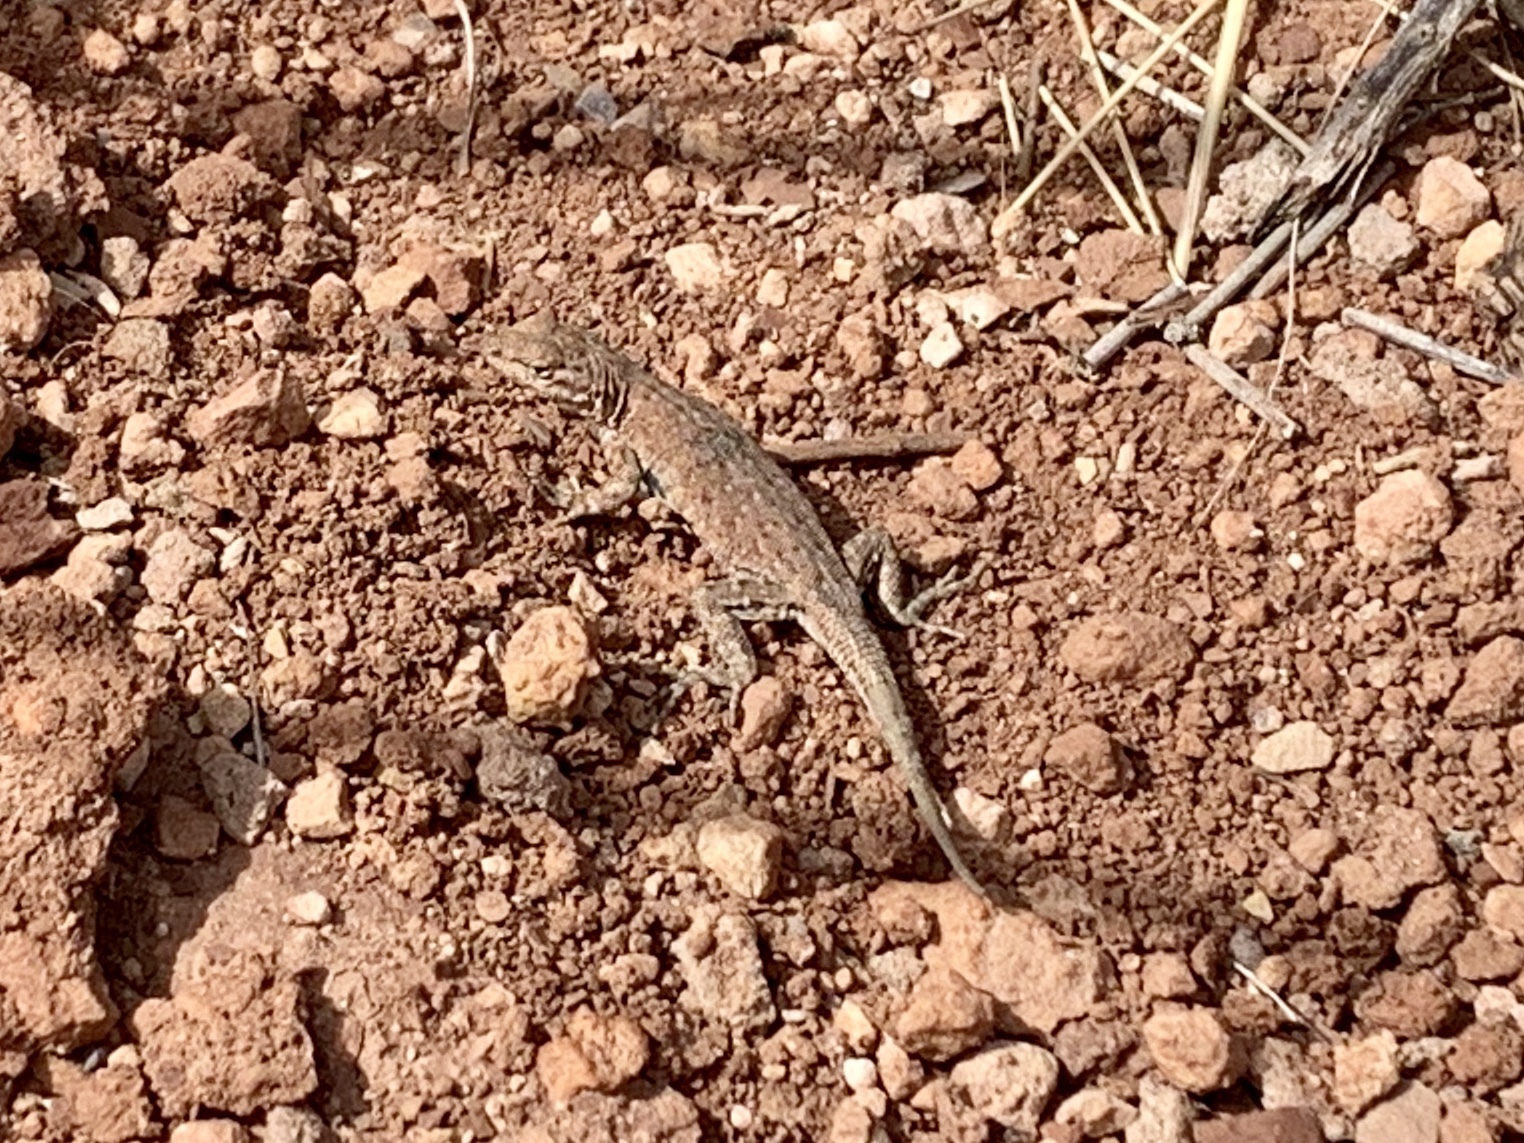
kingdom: Animalia
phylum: Chordata
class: Squamata
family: Phrynosomatidae
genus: Uta
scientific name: Uta stansburiana
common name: Side-blotched lizard
